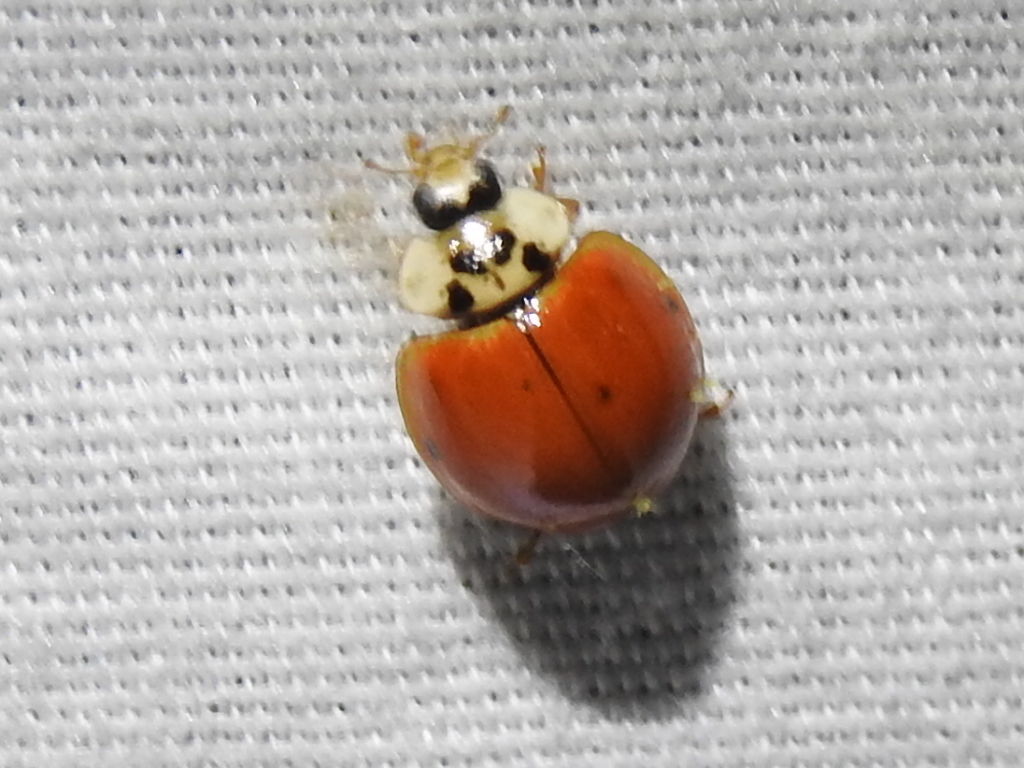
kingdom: Animalia
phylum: Arthropoda
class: Insecta
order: Coleoptera
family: Coccinellidae
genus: Harmonia
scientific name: Harmonia axyridis
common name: Harlequin ladybird
